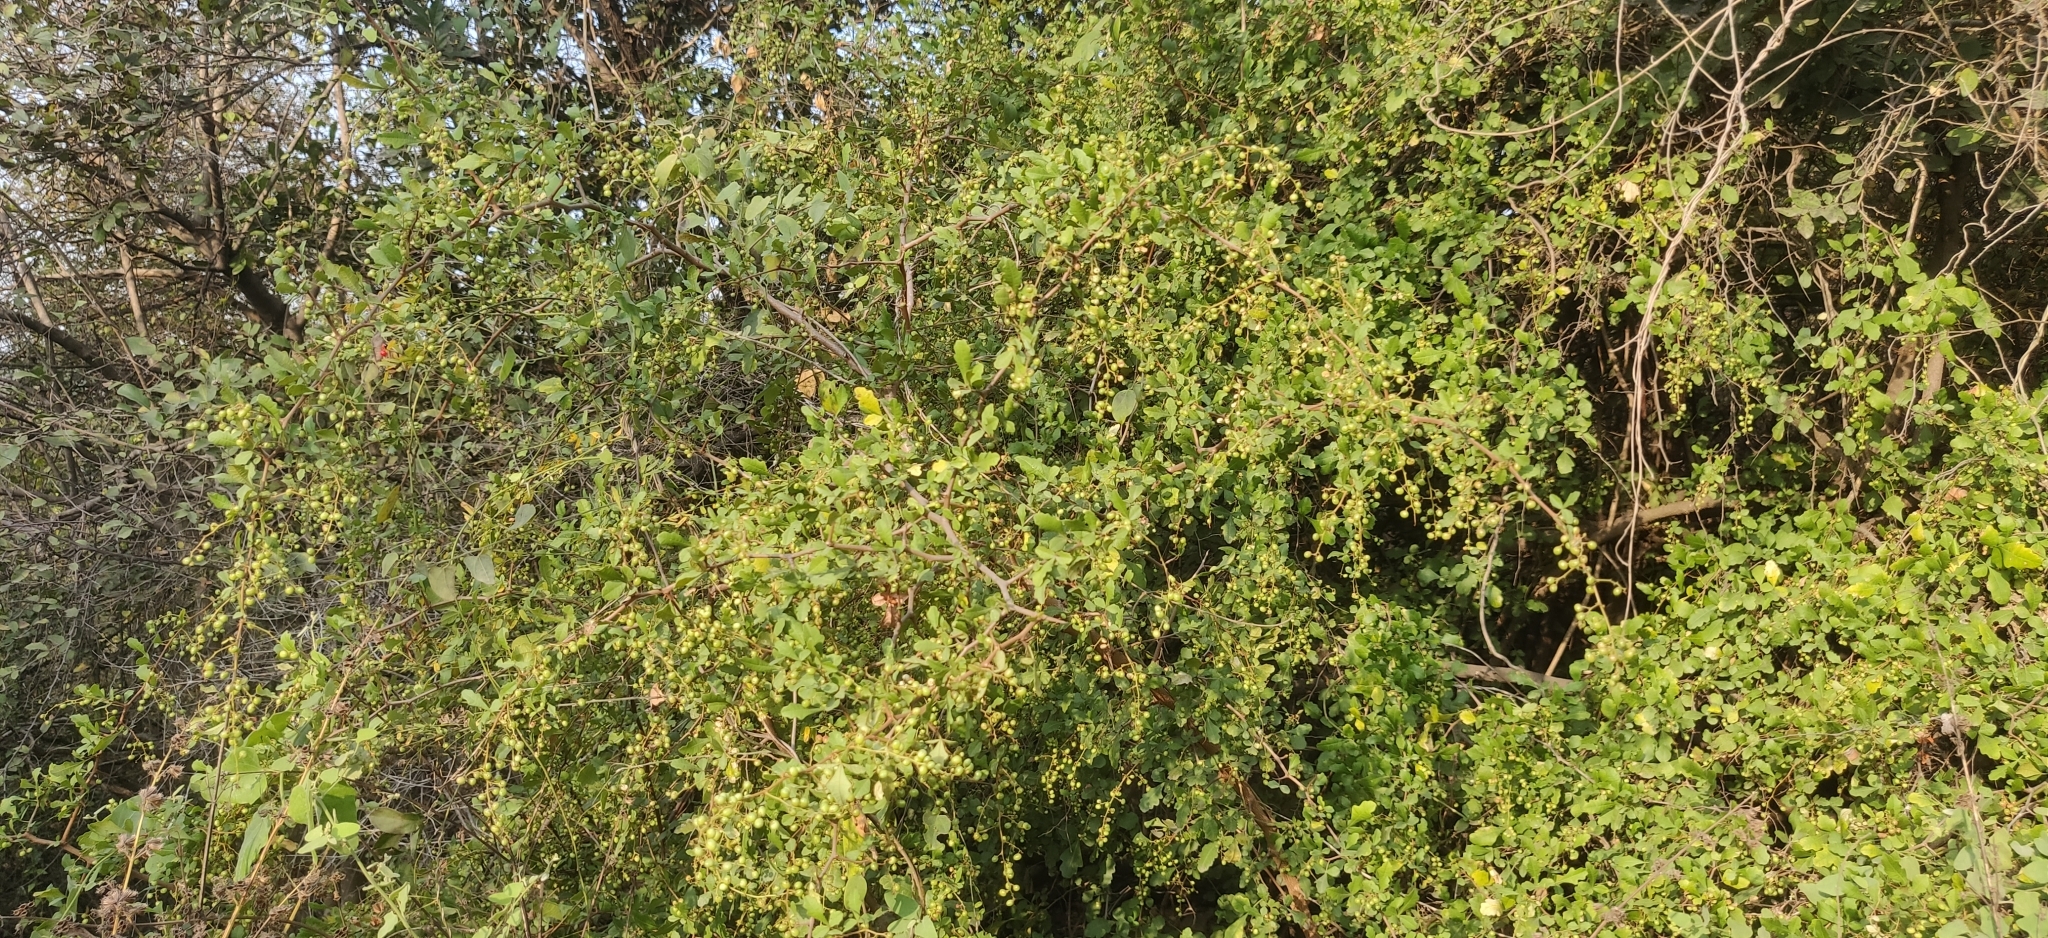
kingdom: Plantae
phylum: Tracheophyta
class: Magnoliopsida
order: Sapindales
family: Anacardiaceae
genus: Searsia
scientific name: Searsia mysorensis
